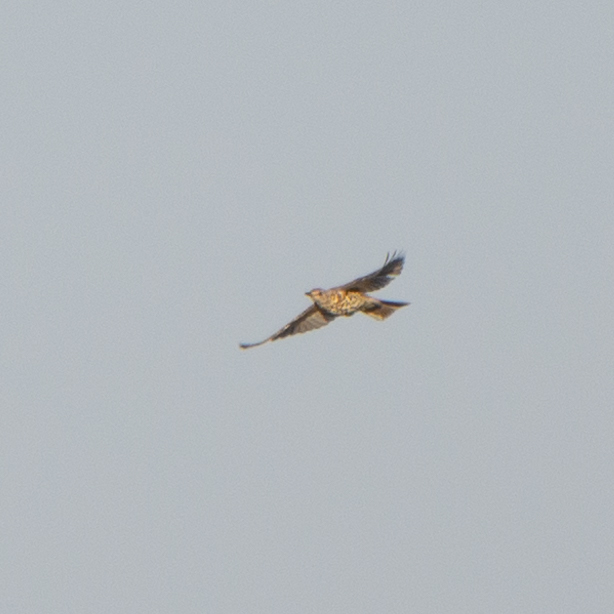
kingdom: Animalia
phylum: Chordata
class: Aves
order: Passeriformes
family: Turdidae
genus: Turdus
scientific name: Turdus viscivorus
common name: Mistle thrush
